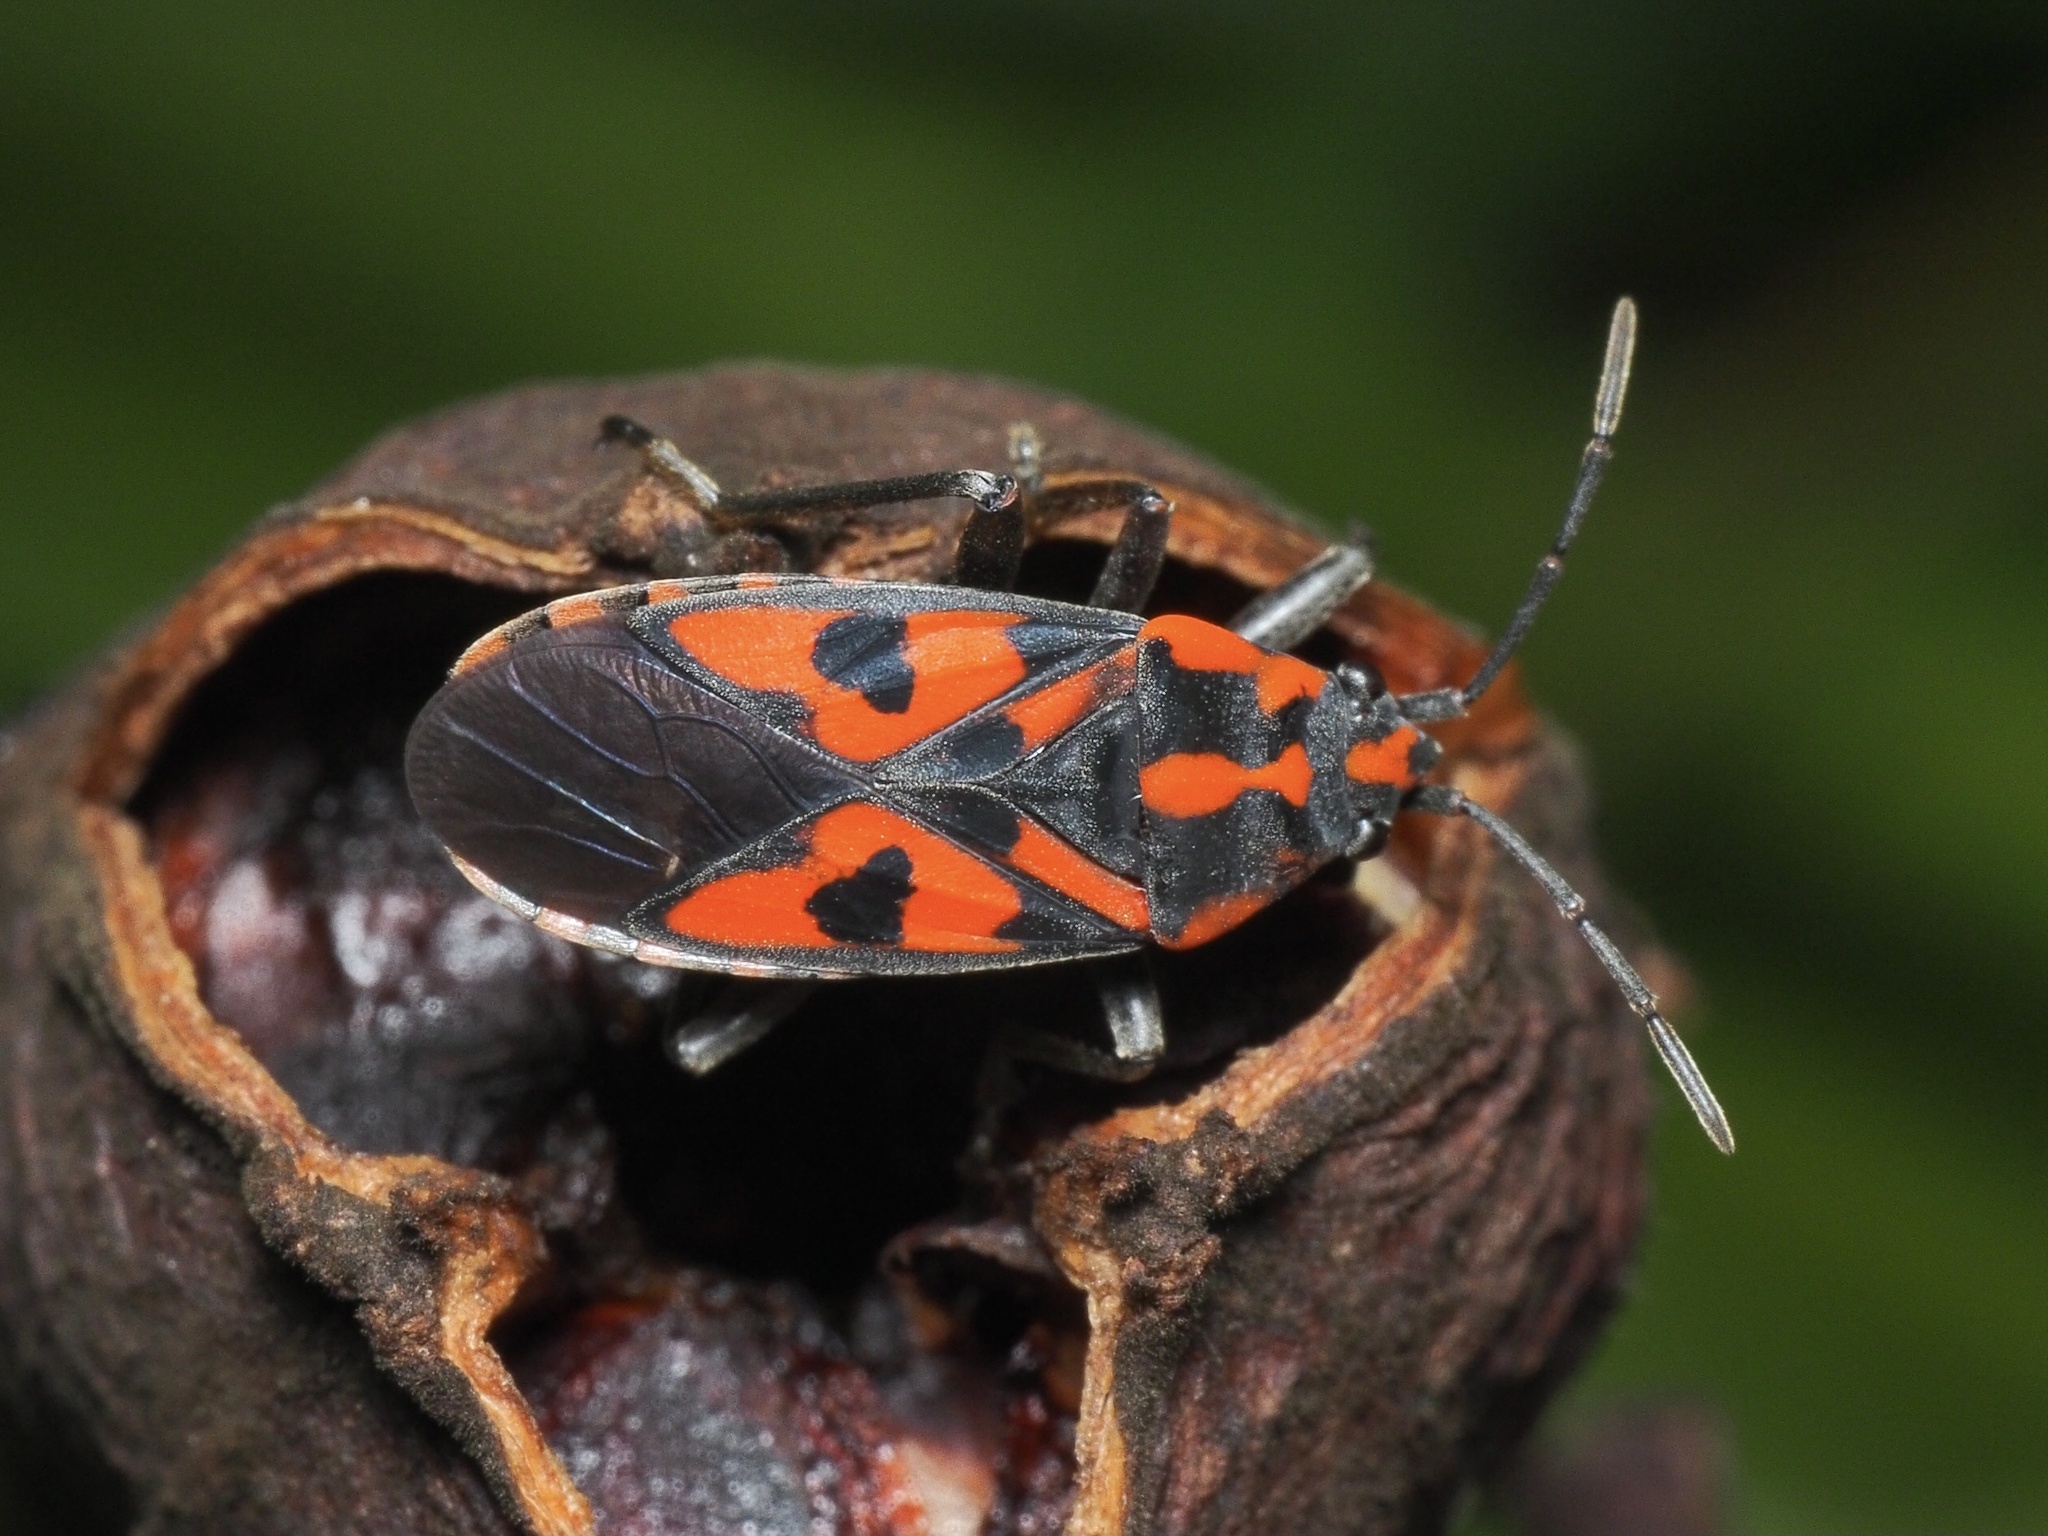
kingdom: Animalia
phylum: Arthropoda
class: Insecta
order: Hemiptera
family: Lygaeidae
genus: Spilostethus
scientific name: Spilostethus saxatilis
